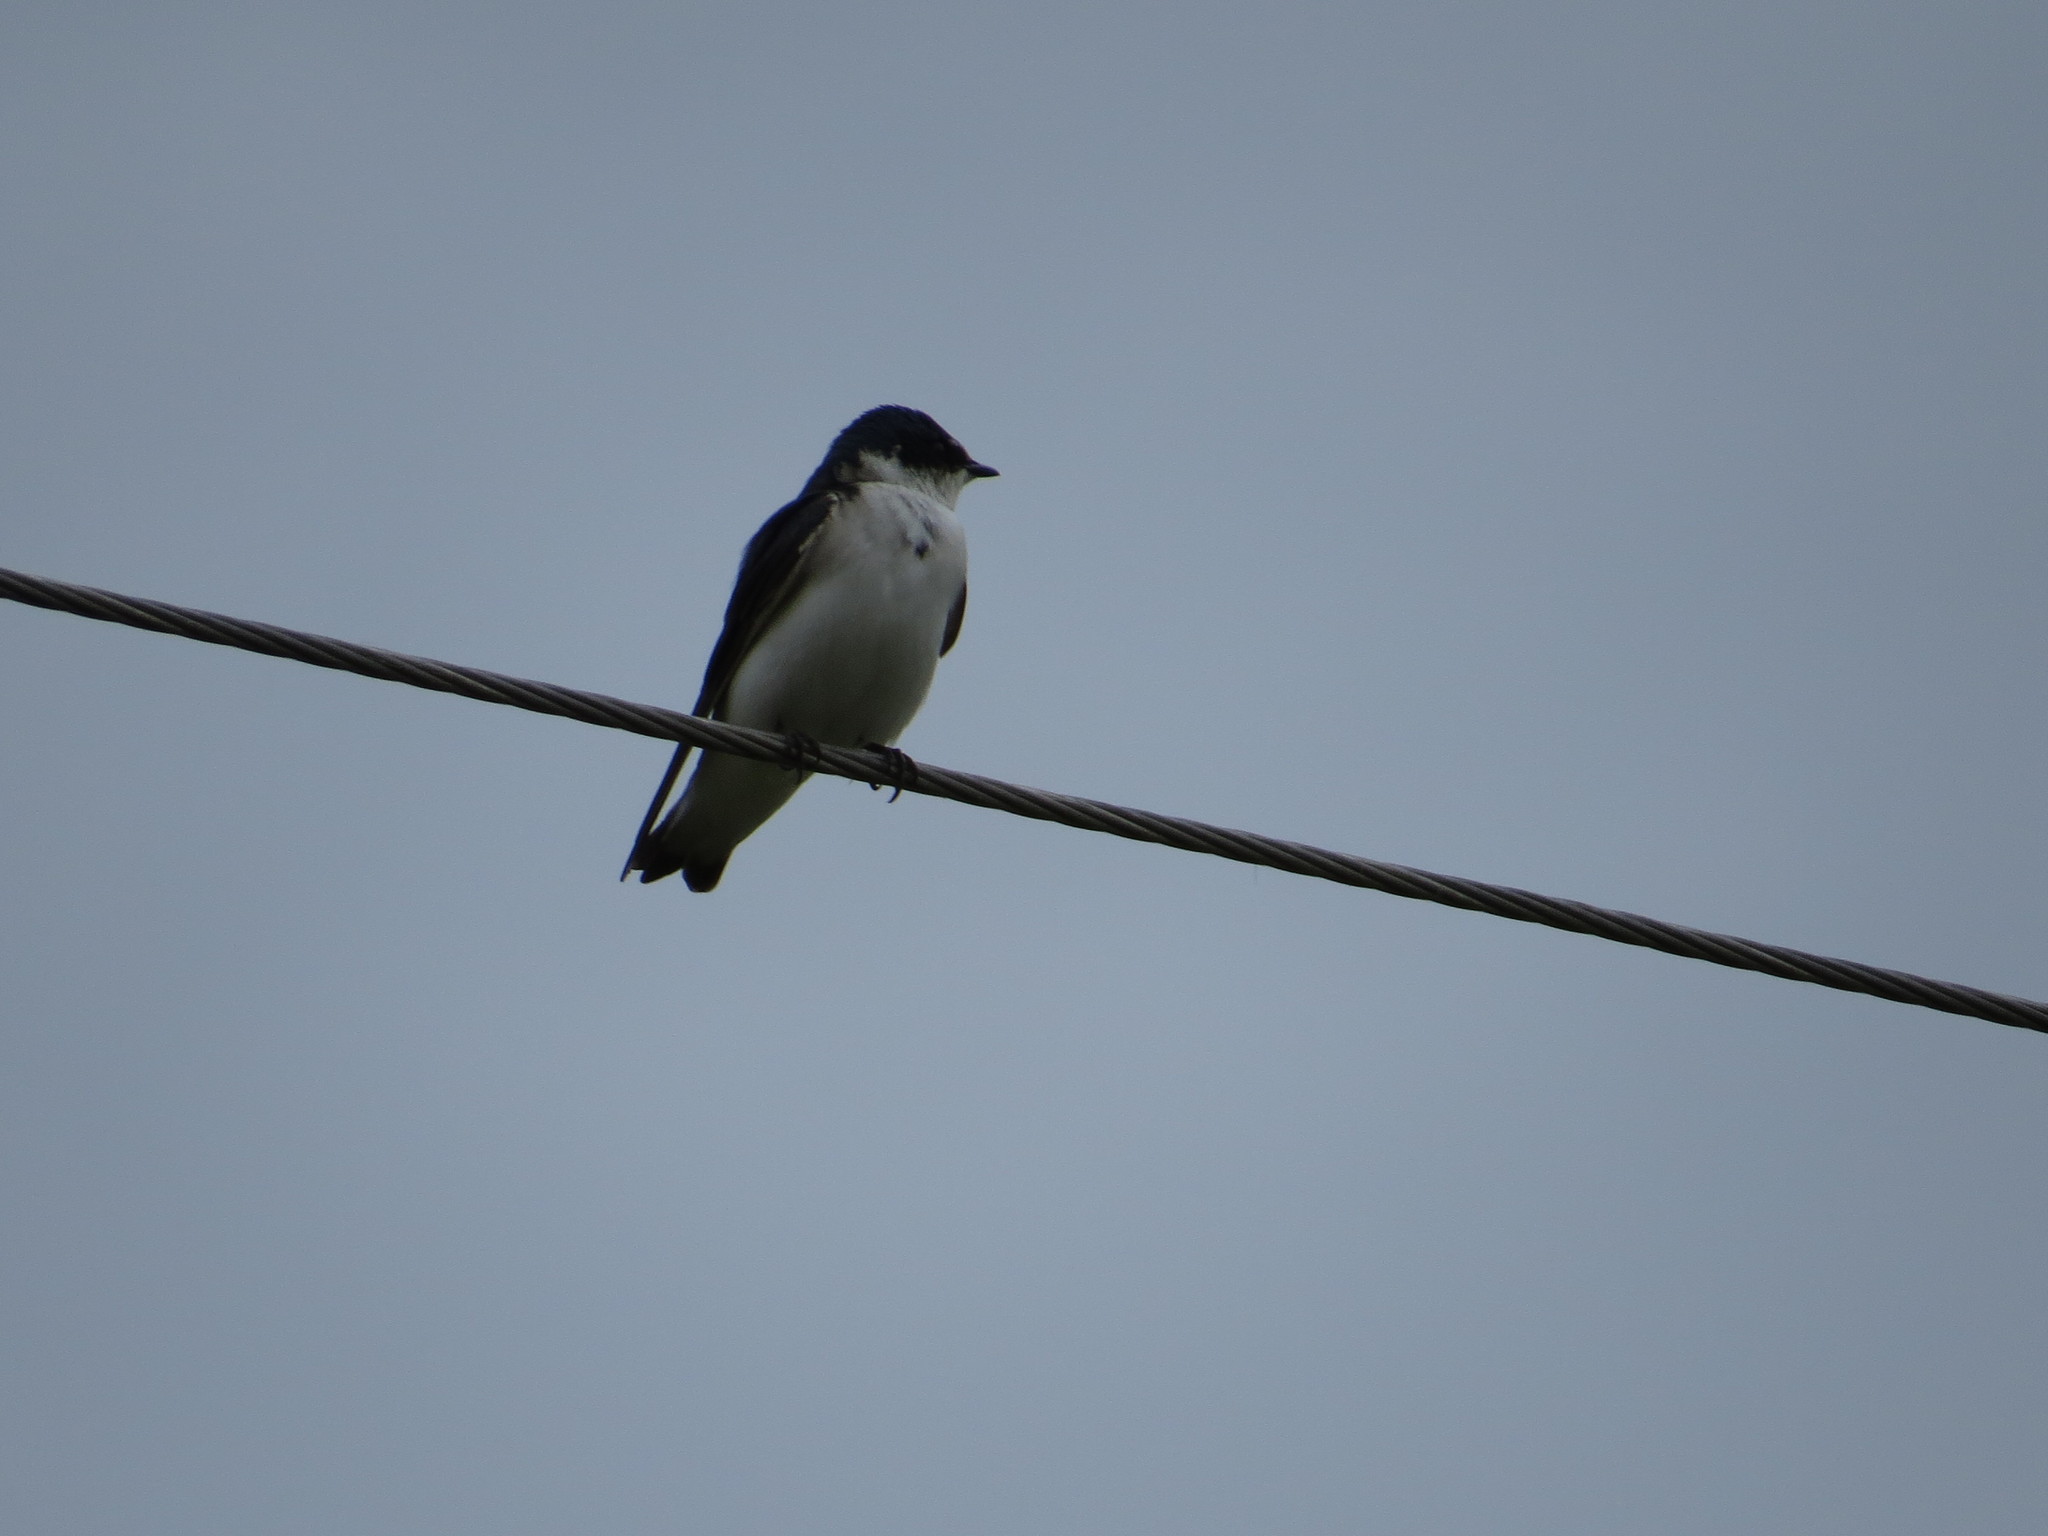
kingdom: Animalia
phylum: Chordata
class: Aves
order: Passeriformes
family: Hirundinidae
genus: Tachycineta
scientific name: Tachycineta leucorrhoa
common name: White-rumped swallow
